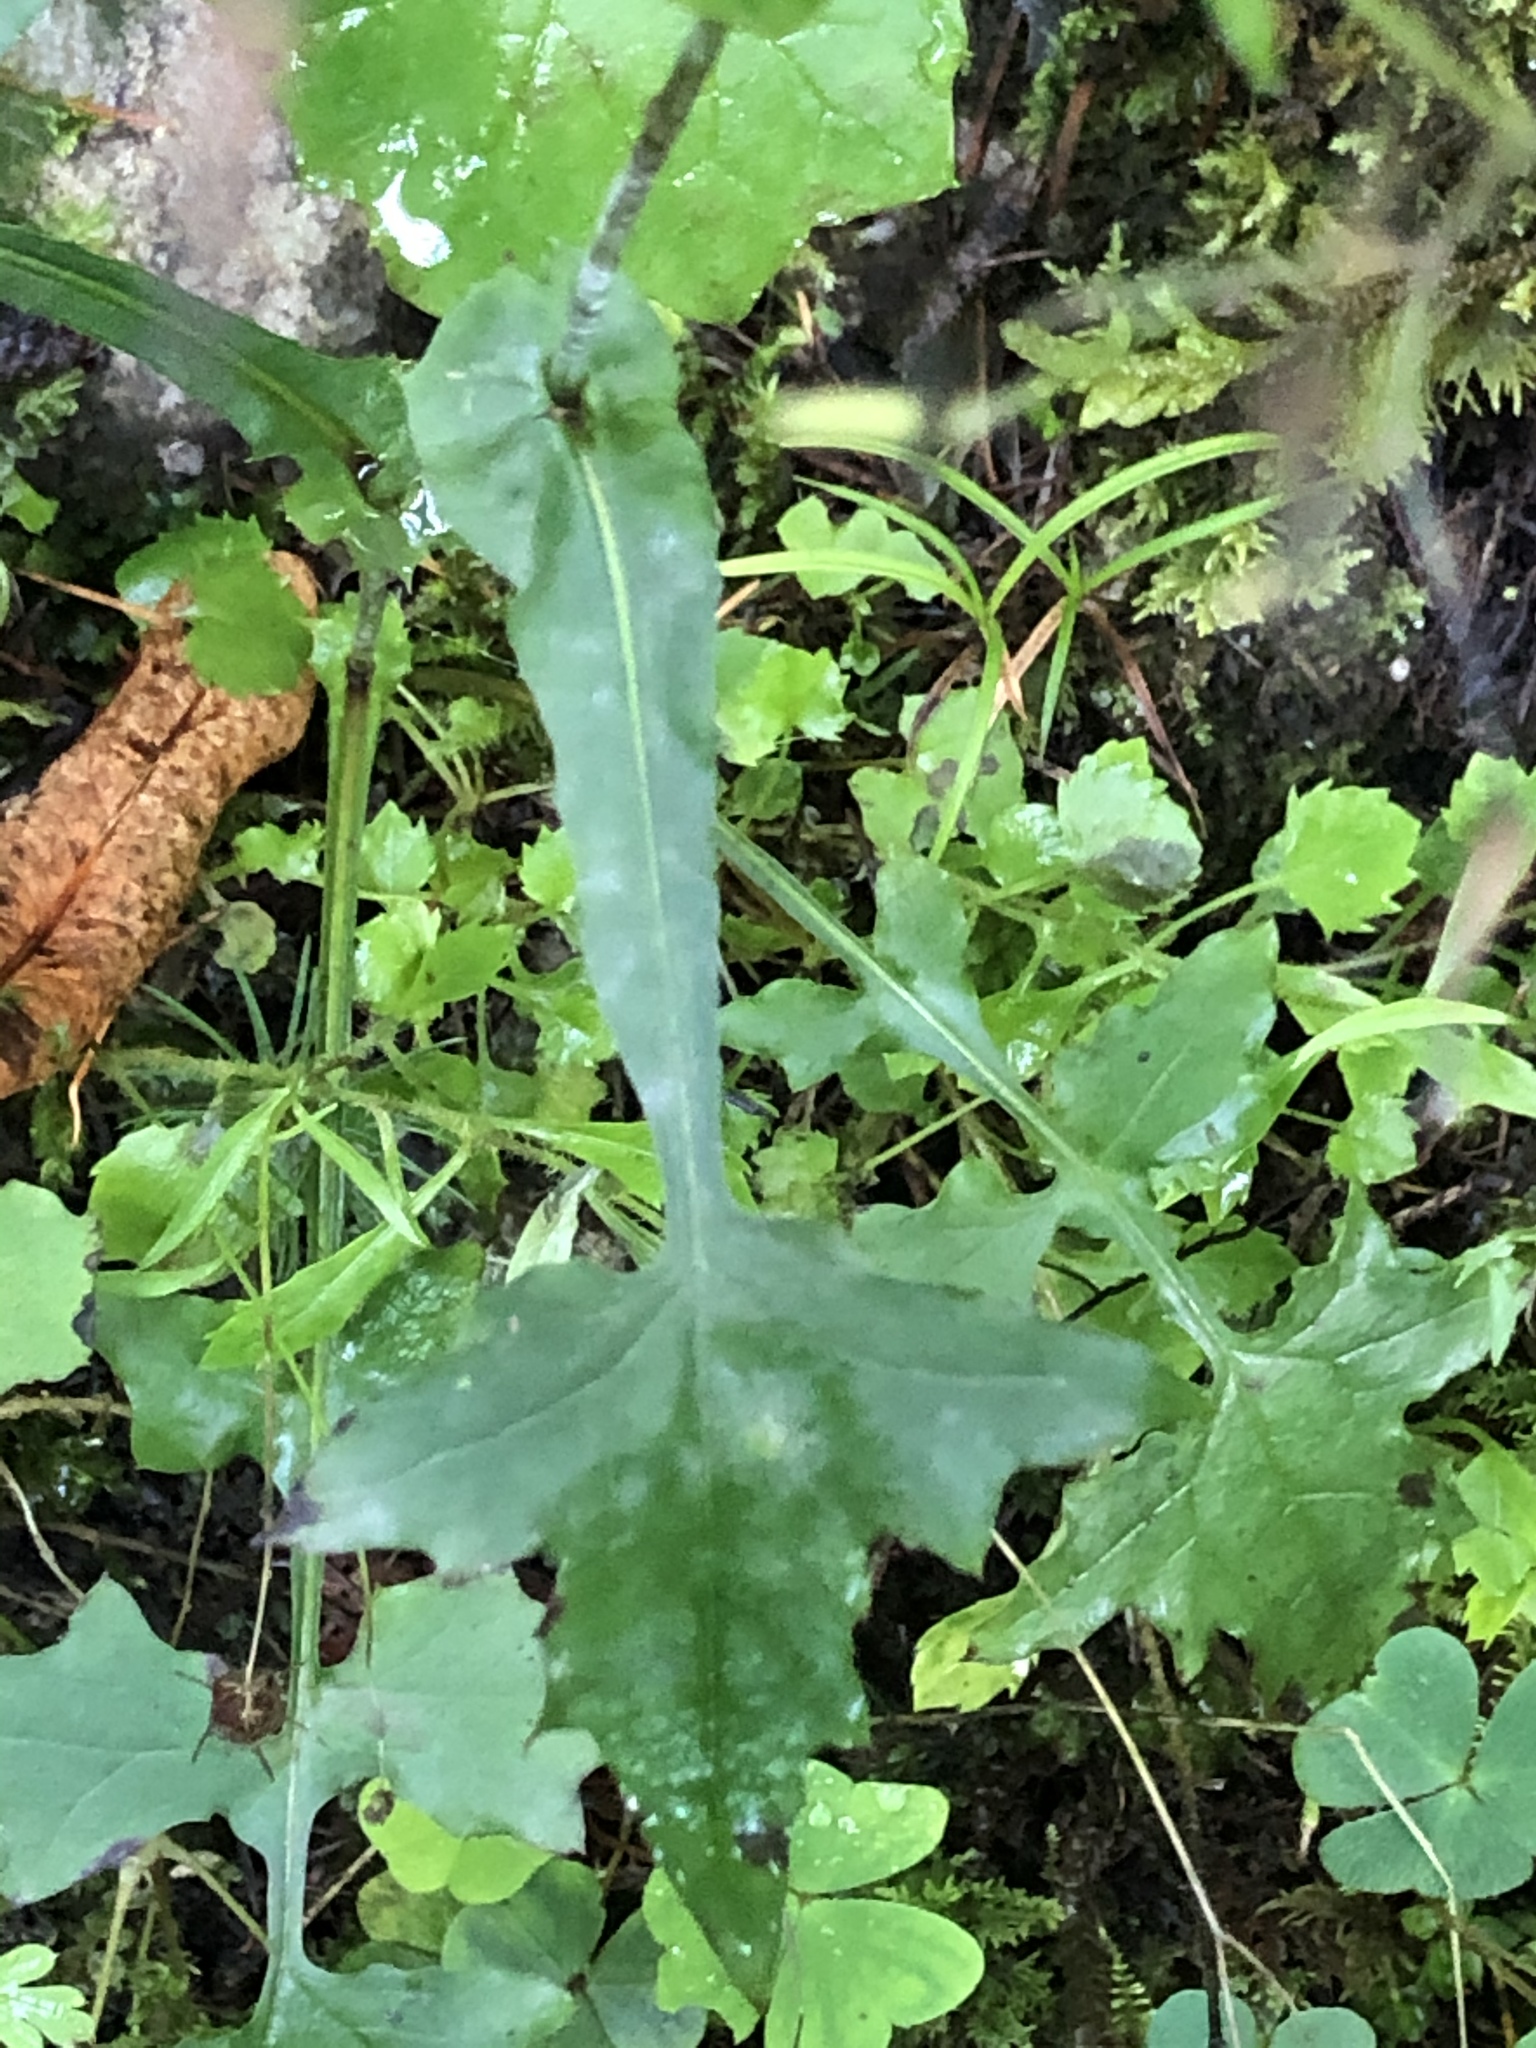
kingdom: Plantae
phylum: Tracheophyta
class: Magnoliopsida
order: Asterales
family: Asteraceae
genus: Mycelis
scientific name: Mycelis muralis
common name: Wall lettuce
